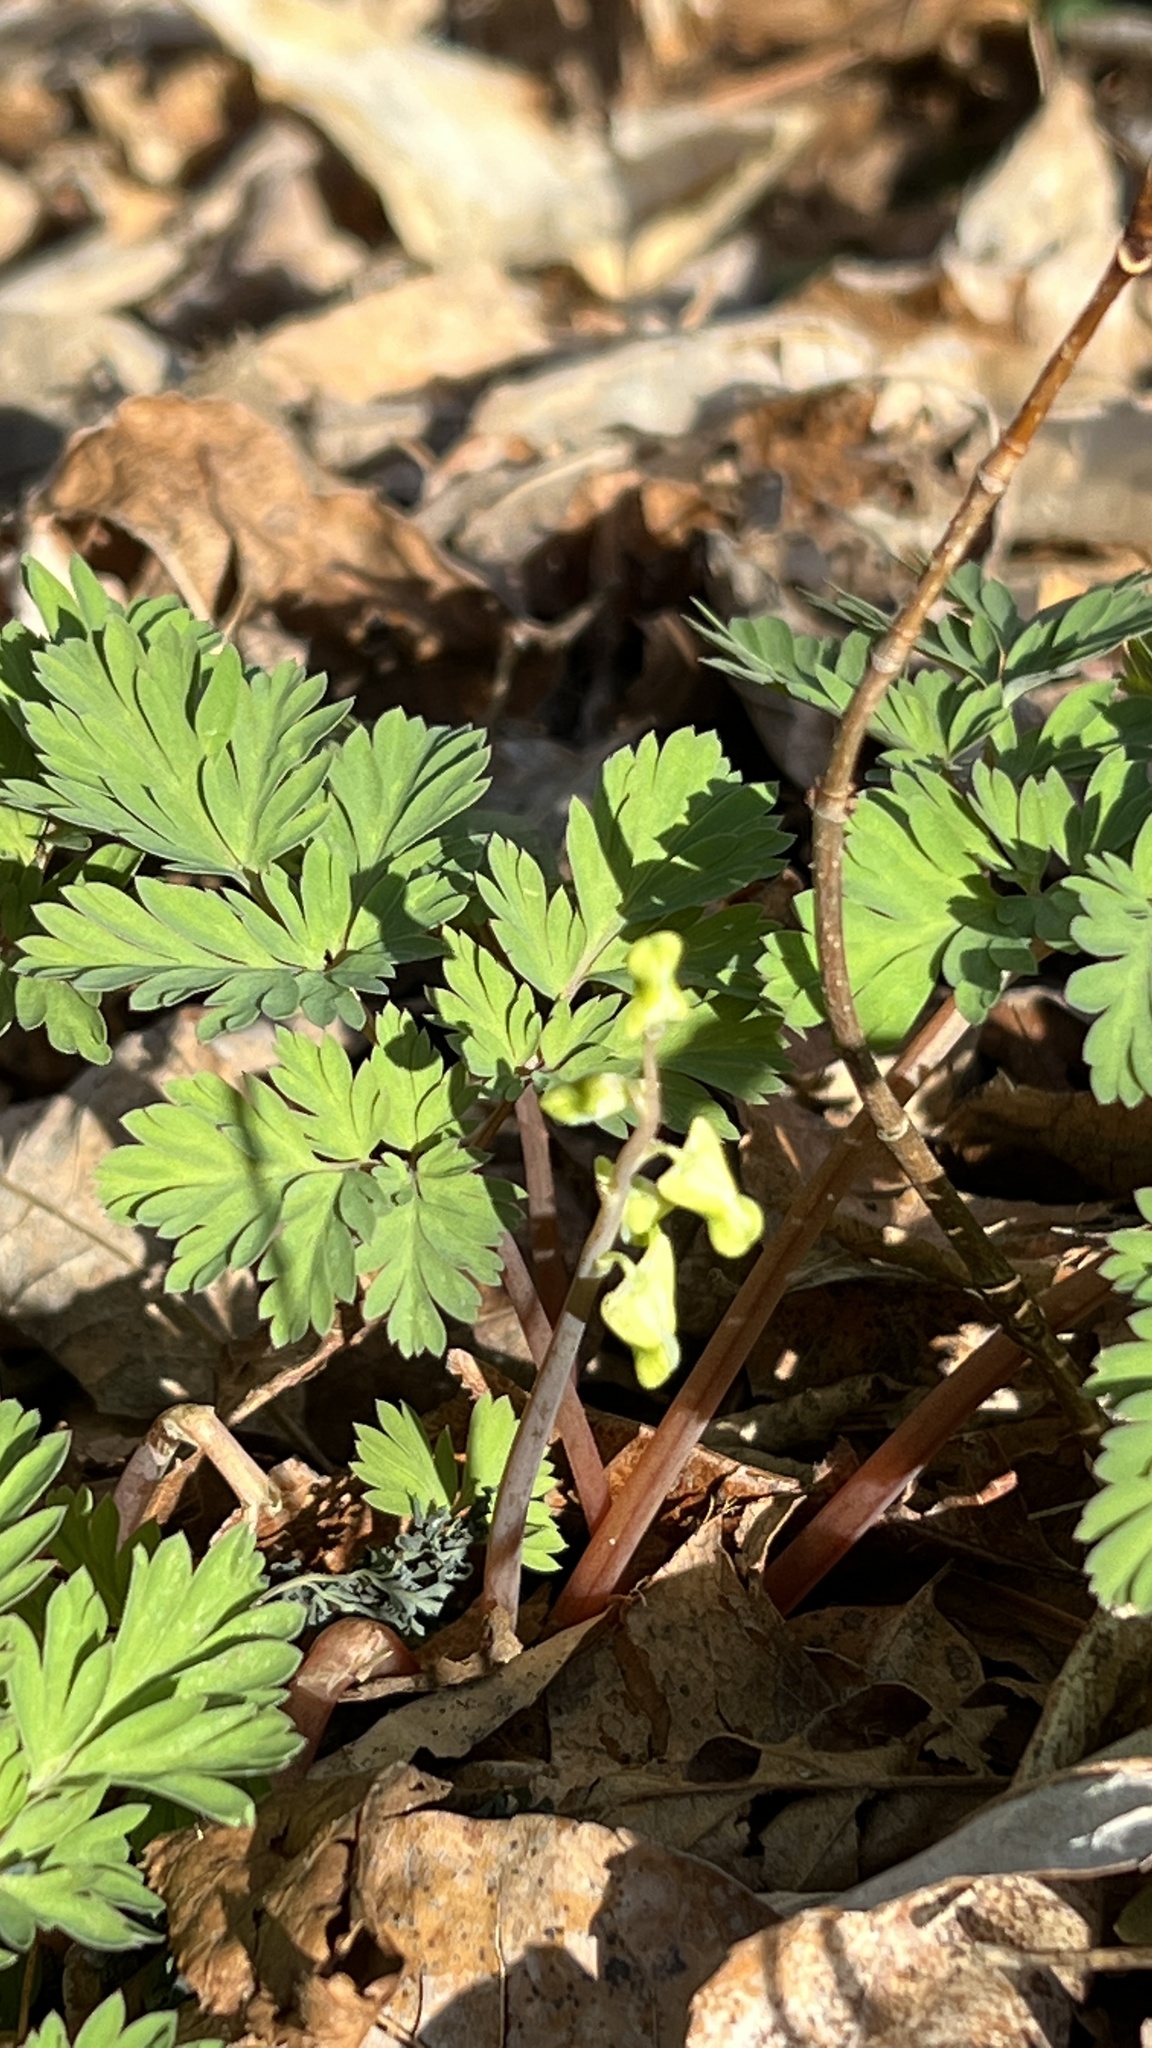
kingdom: Plantae
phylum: Tracheophyta
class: Magnoliopsida
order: Ranunculales
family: Papaveraceae
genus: Dicentra
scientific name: Dicentra cucullaria
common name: Dutchman's breeches
